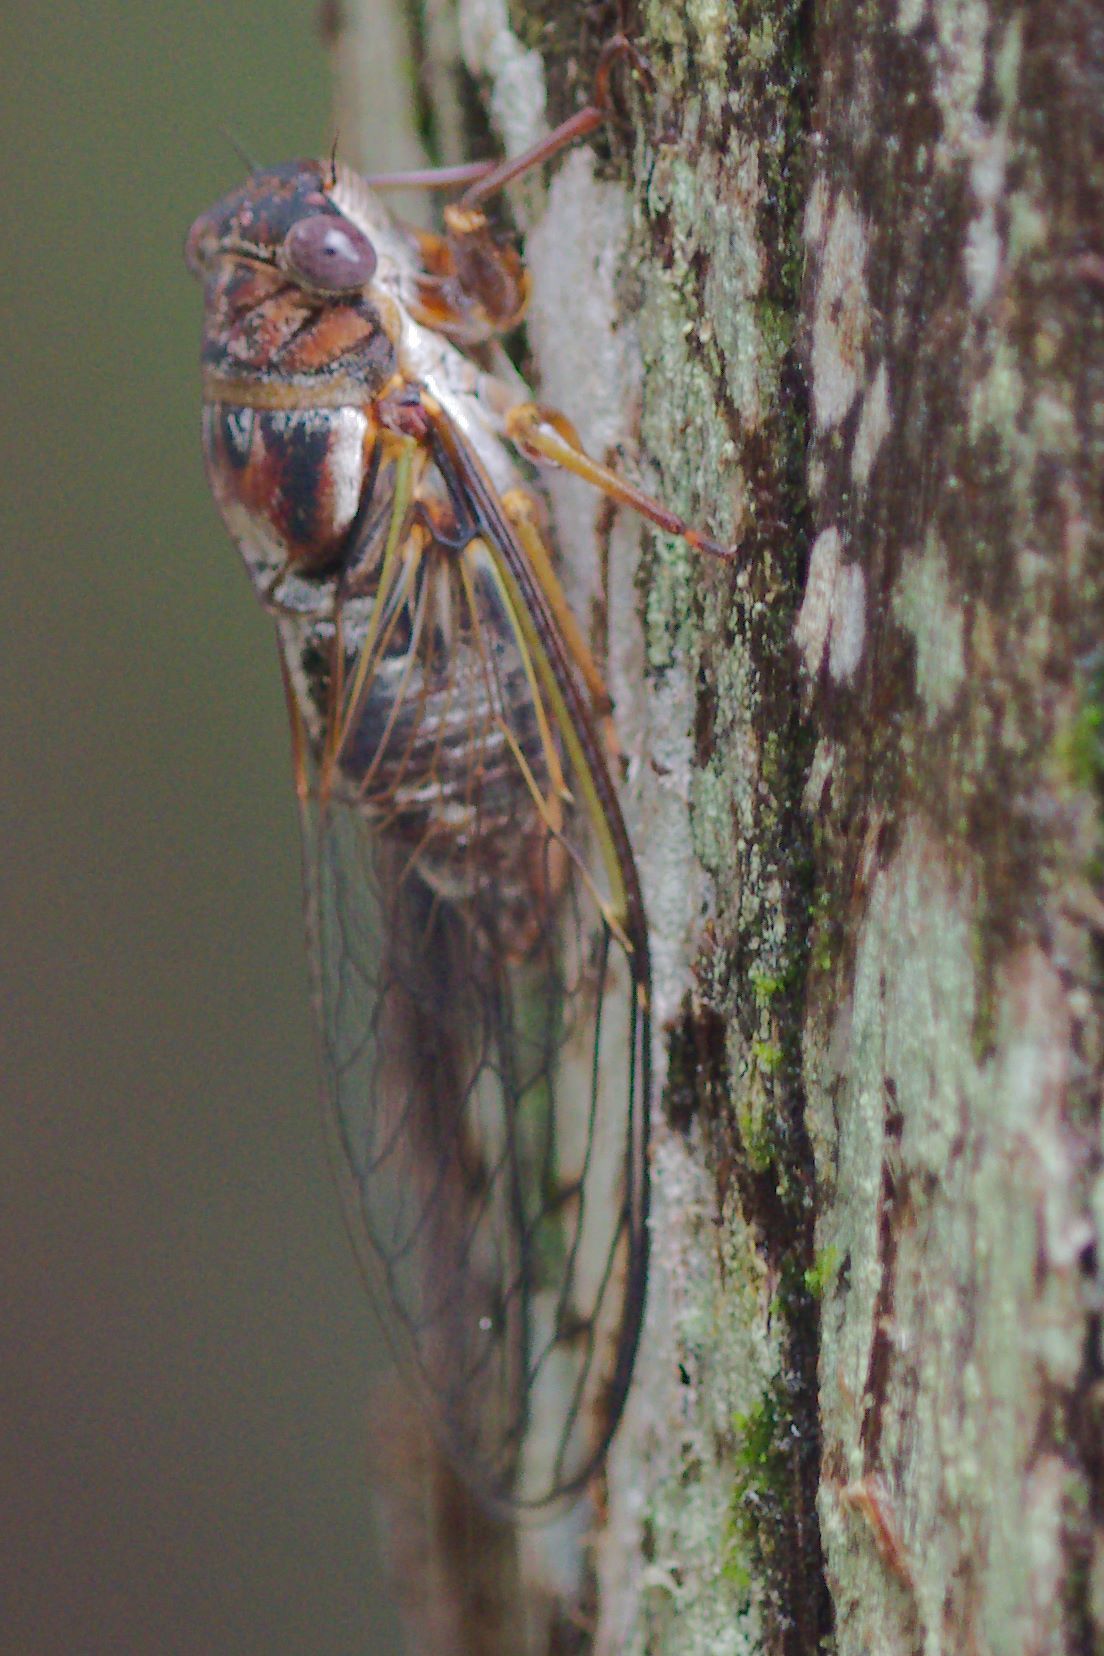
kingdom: Animalia
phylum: Arthropoda
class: Insecta
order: Hemiptera
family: Cicadidae
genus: Diceroprocta
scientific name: Diceroprocta olympusa
